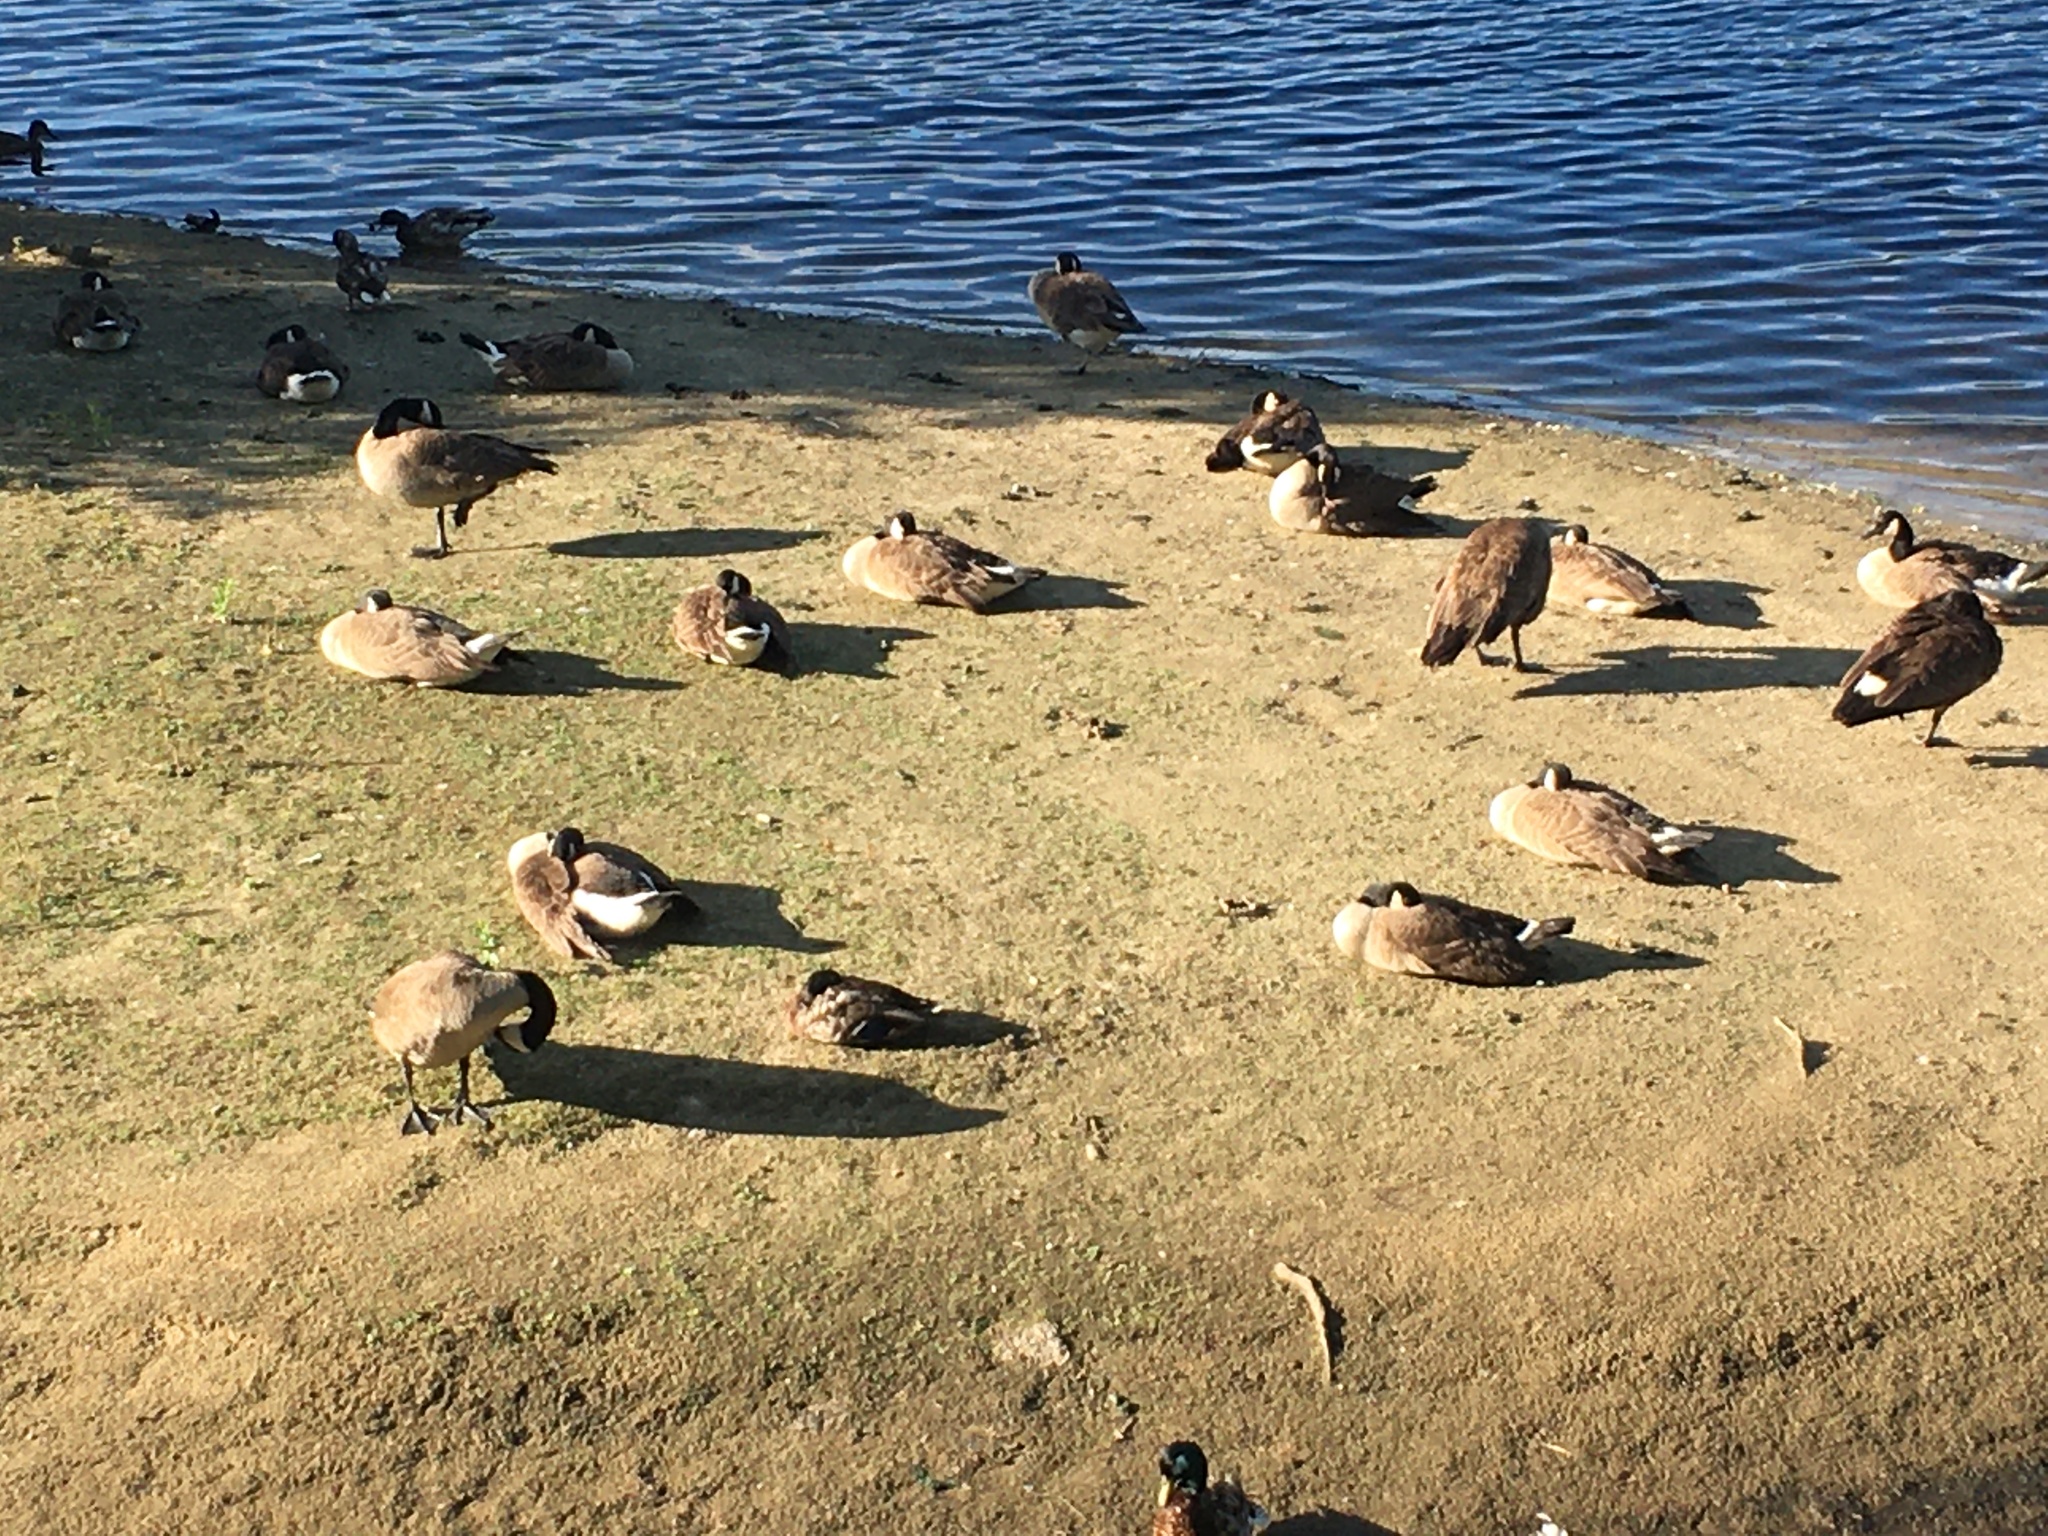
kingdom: Animalia
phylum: Chordata
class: Aves
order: Anseriformes
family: Anatidae
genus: Branta
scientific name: Branta canadensis
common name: Canada goose
